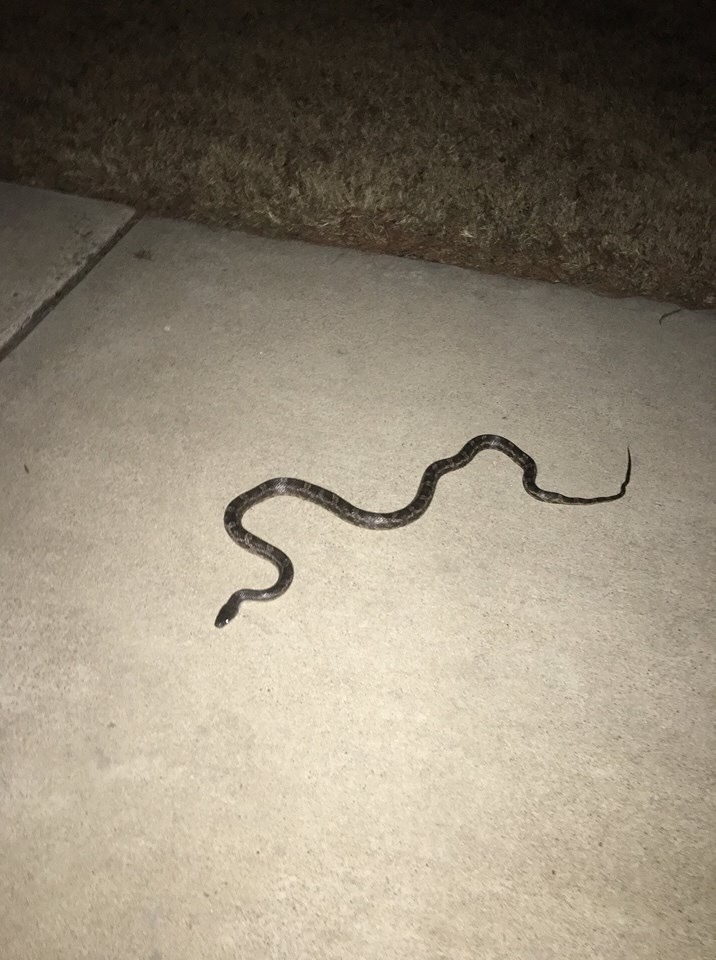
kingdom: Animalia
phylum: Chordata
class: Squamata
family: Colubridae
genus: Pantherophis
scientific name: Pantherophis obsoletus
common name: Black rat snake
